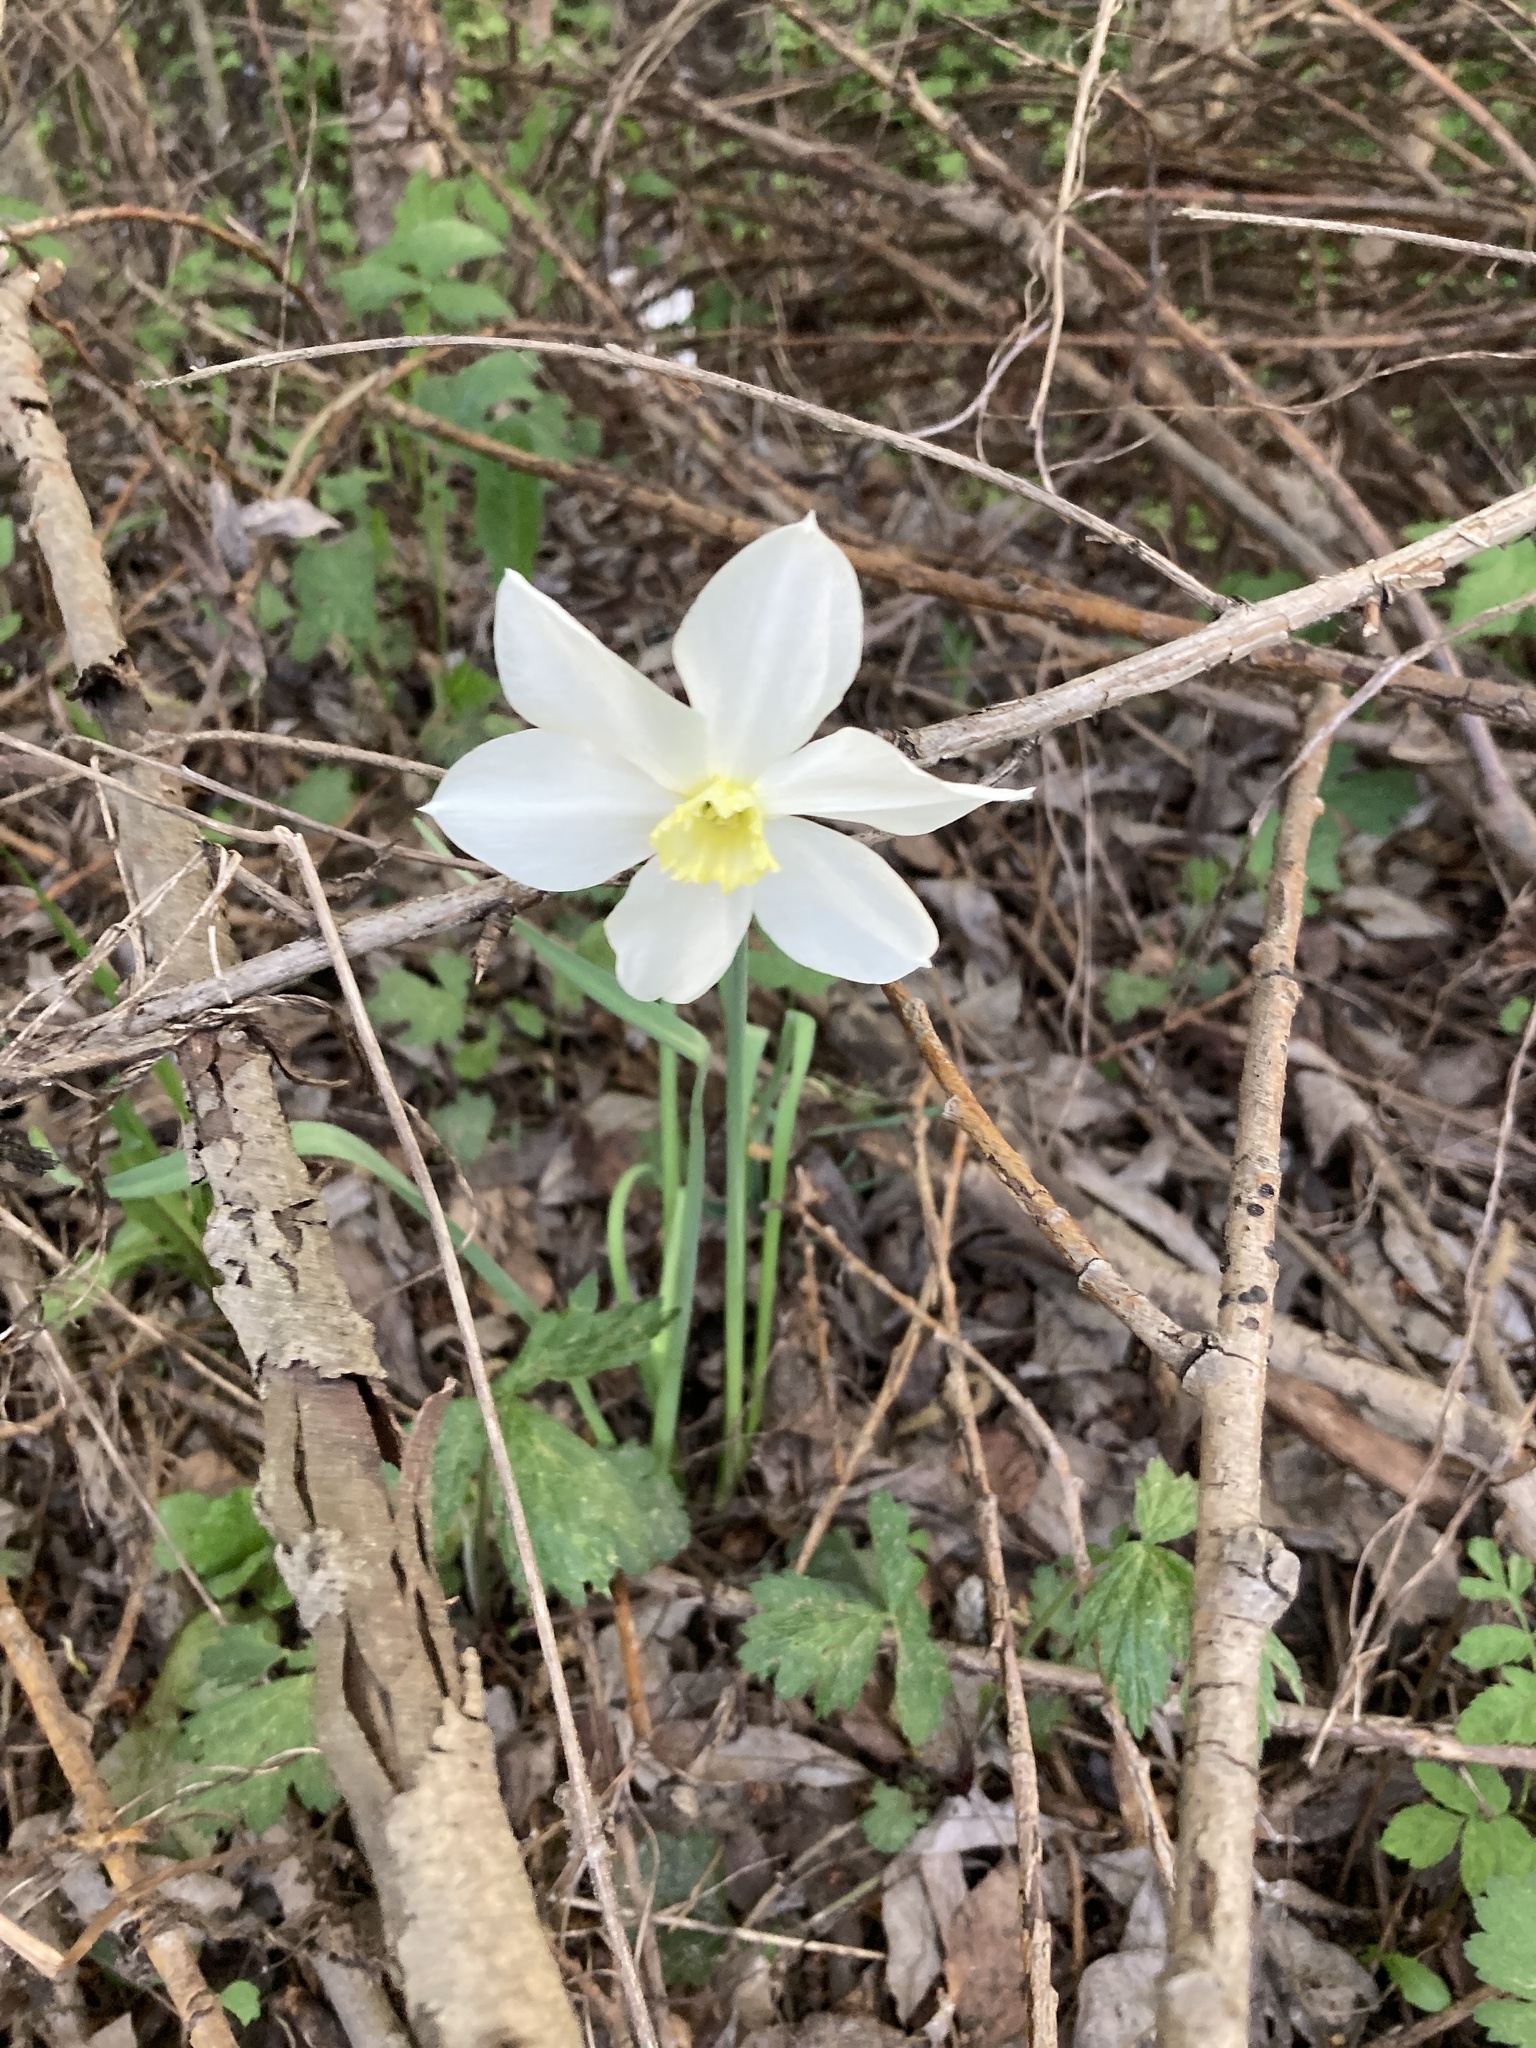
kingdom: Plantae
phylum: Tracheophyta
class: Liliopsida
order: Asparagales
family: Amaryllidaceae
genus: Narcissus
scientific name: Narcissus poeticus
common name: Pheasant's-eye daffodil
